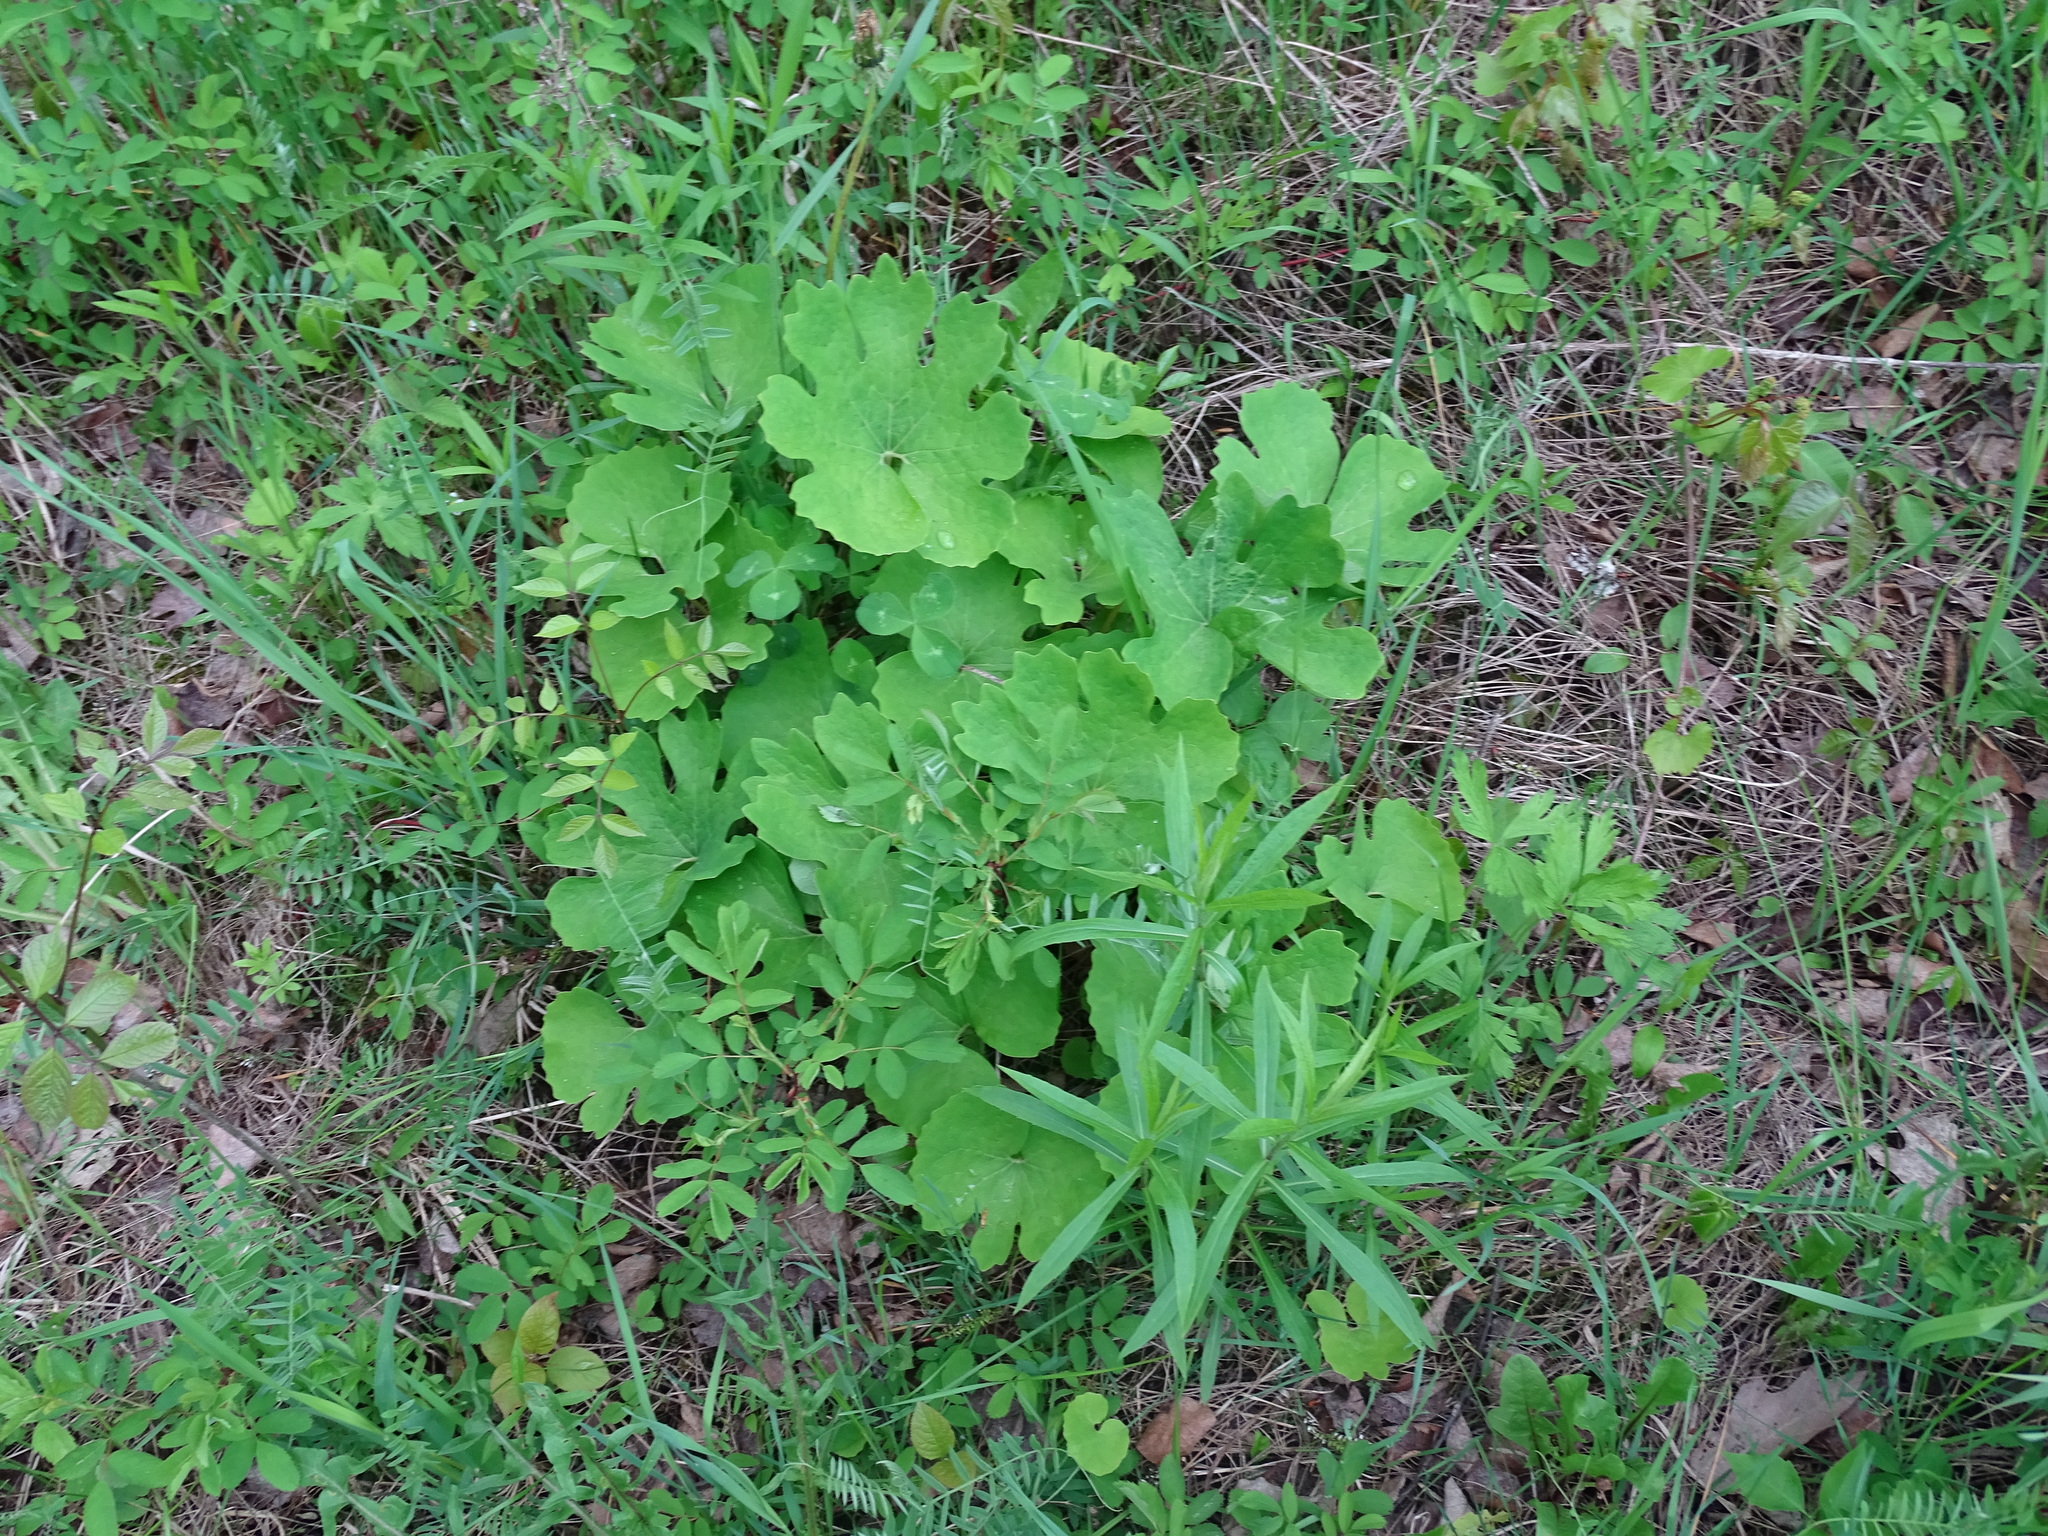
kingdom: Plantae
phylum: Tracheophyta
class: Magnoliopsida
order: Ranunculales
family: Papaveraceae
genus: Sanguinaria
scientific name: Sanguinaria canadensis
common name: Bloodroot
